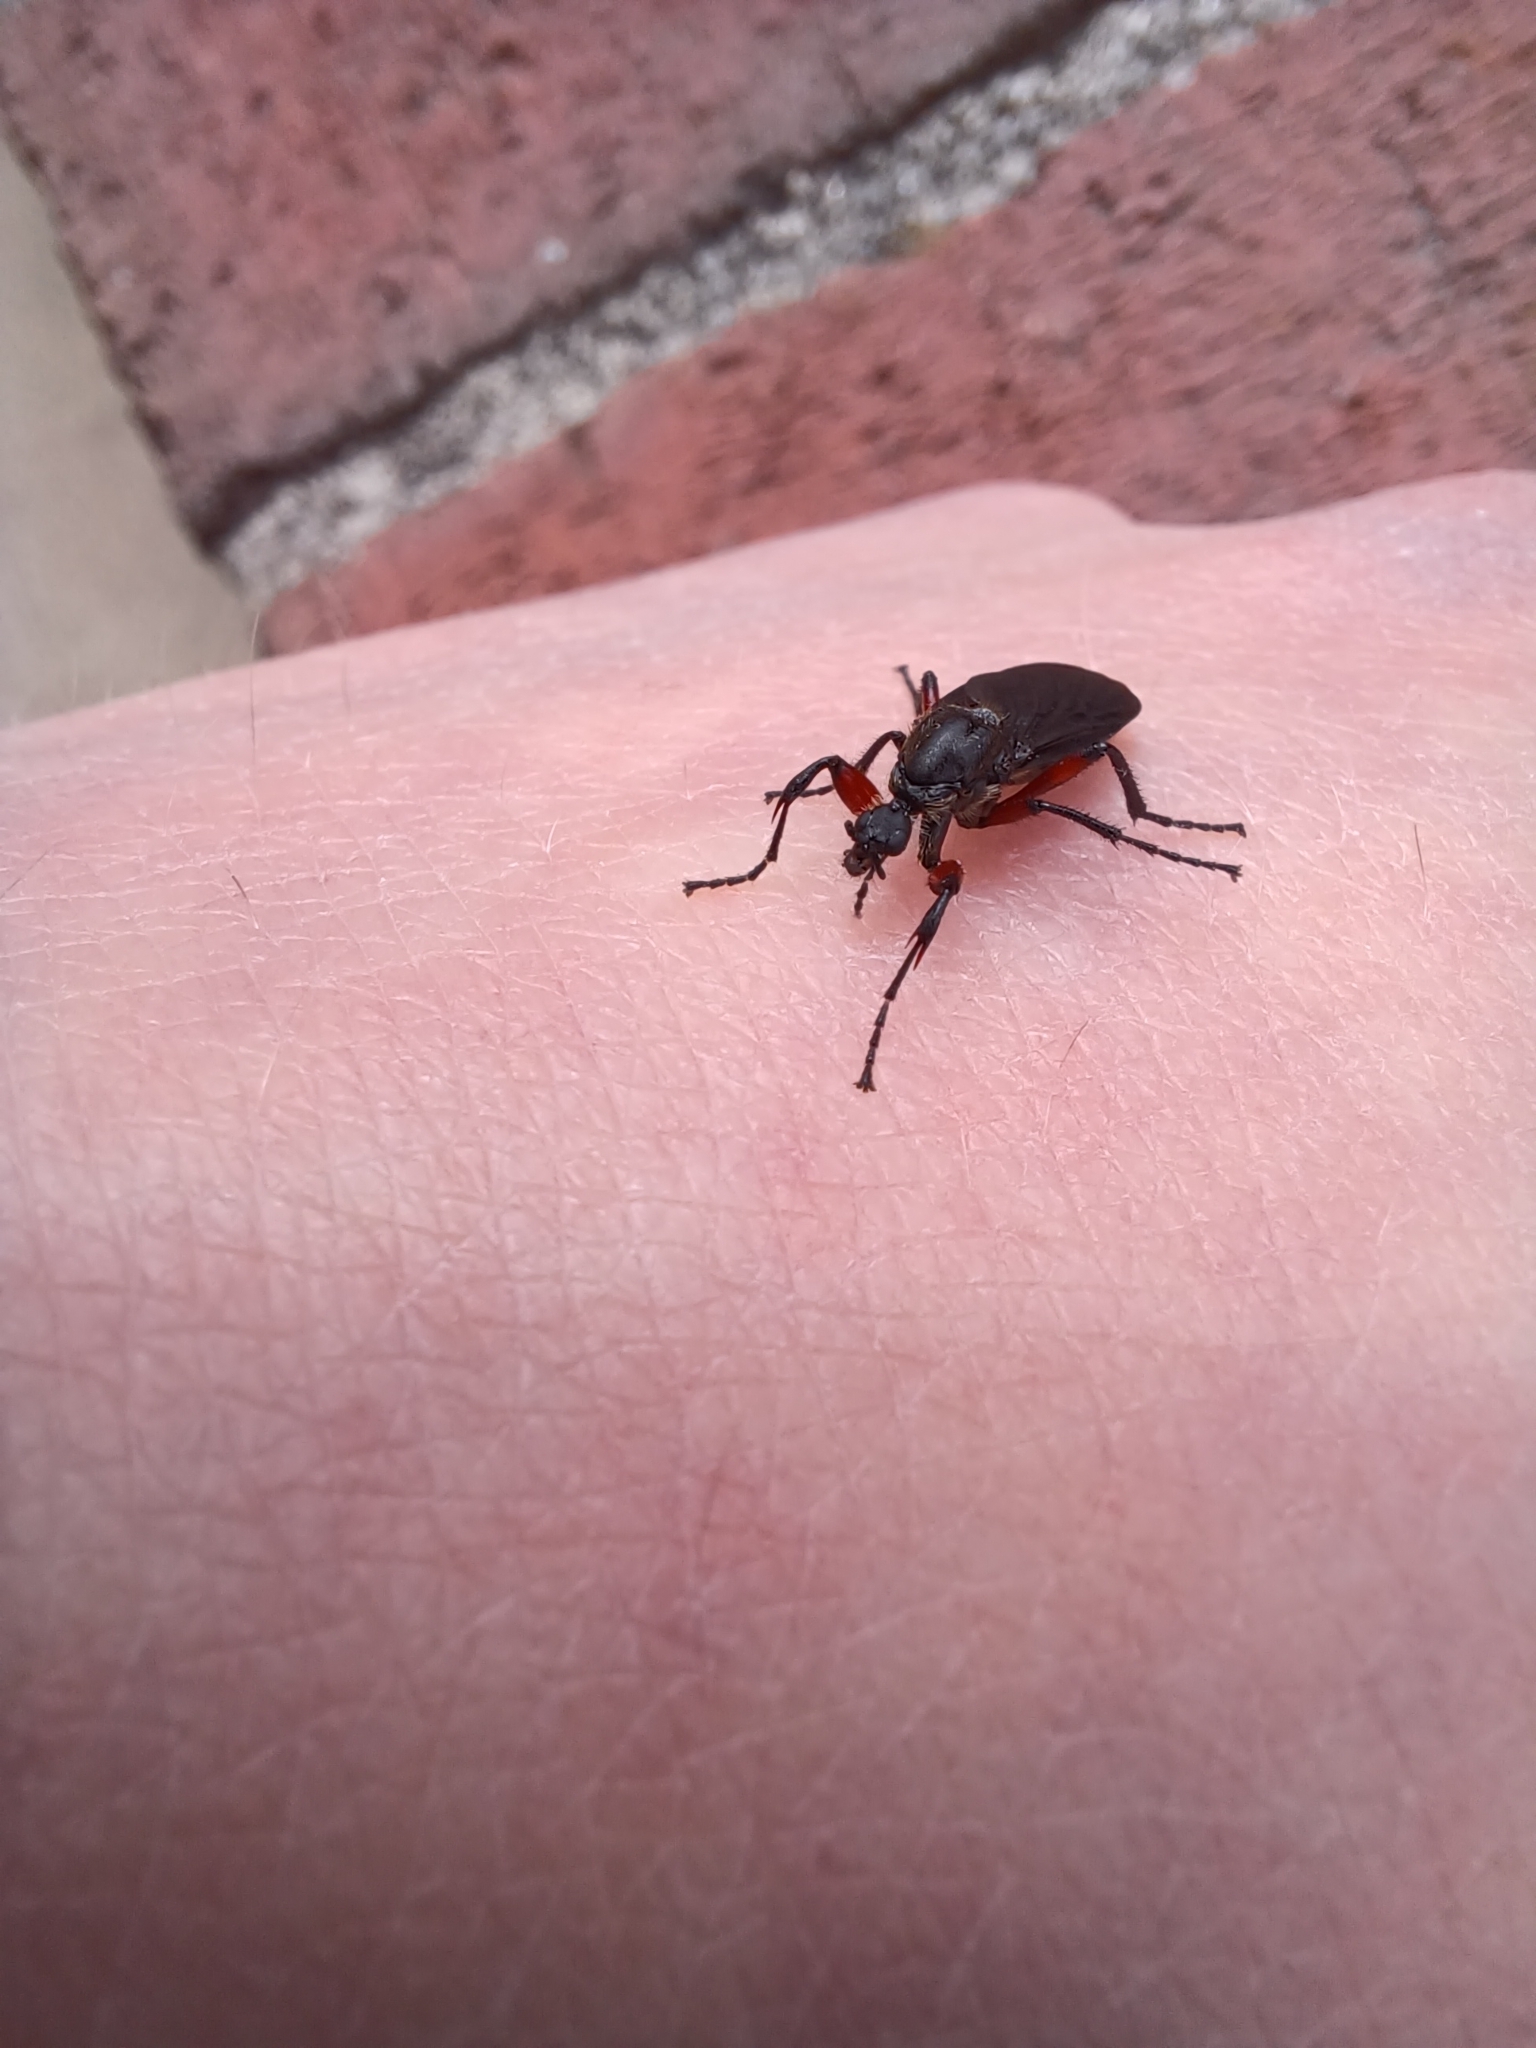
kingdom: Animalia
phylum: Arthropoda
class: Insecta
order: Diptera
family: Bibionidae
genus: Bibio
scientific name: Bibio femoratus
